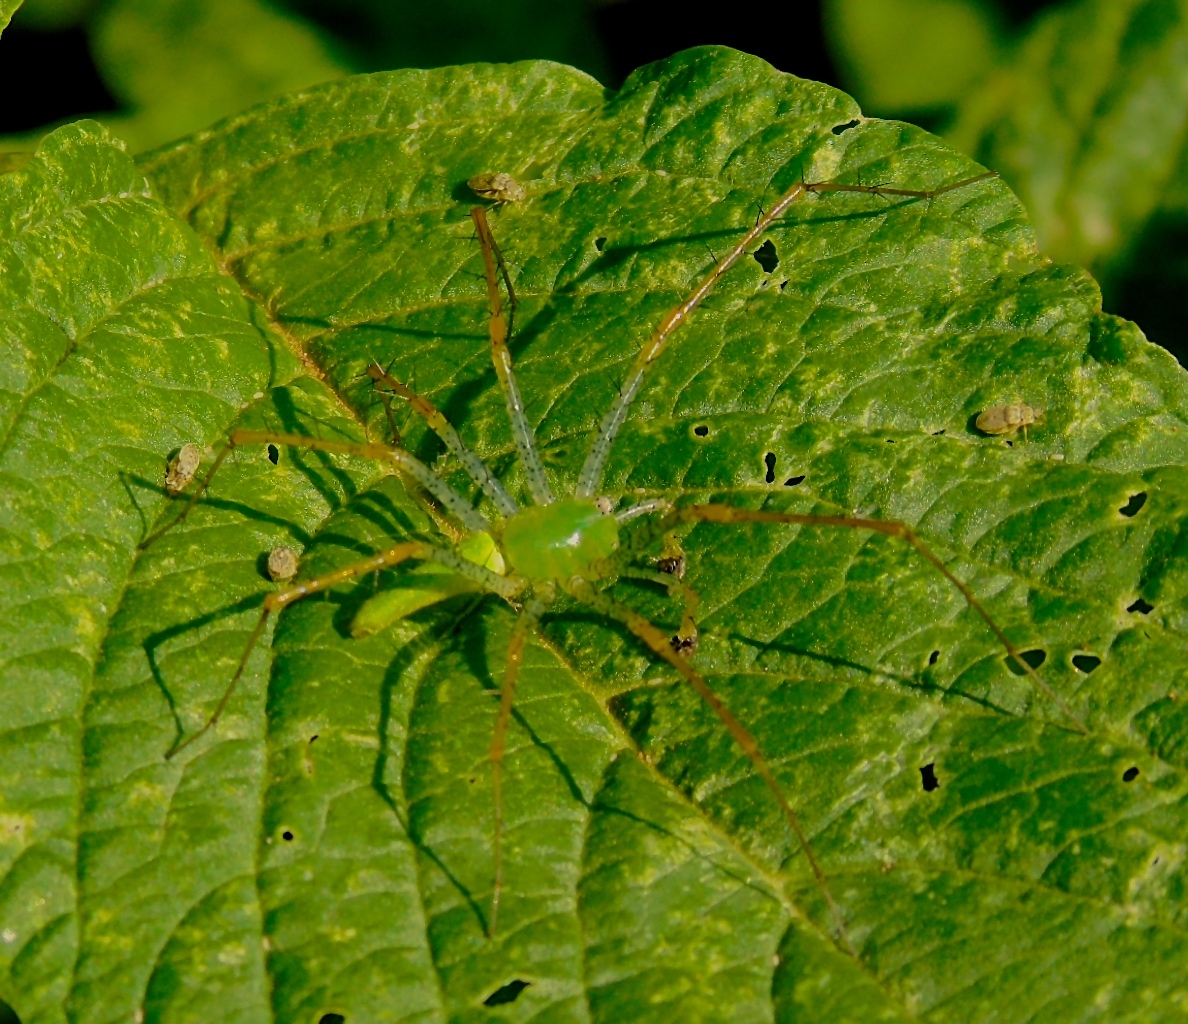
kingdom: Animalia
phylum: Arthropoda
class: Arachnida
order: Araneae
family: Oxyopidae
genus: Peucetia
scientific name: Peucetia viridans
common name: Lynx spiders
